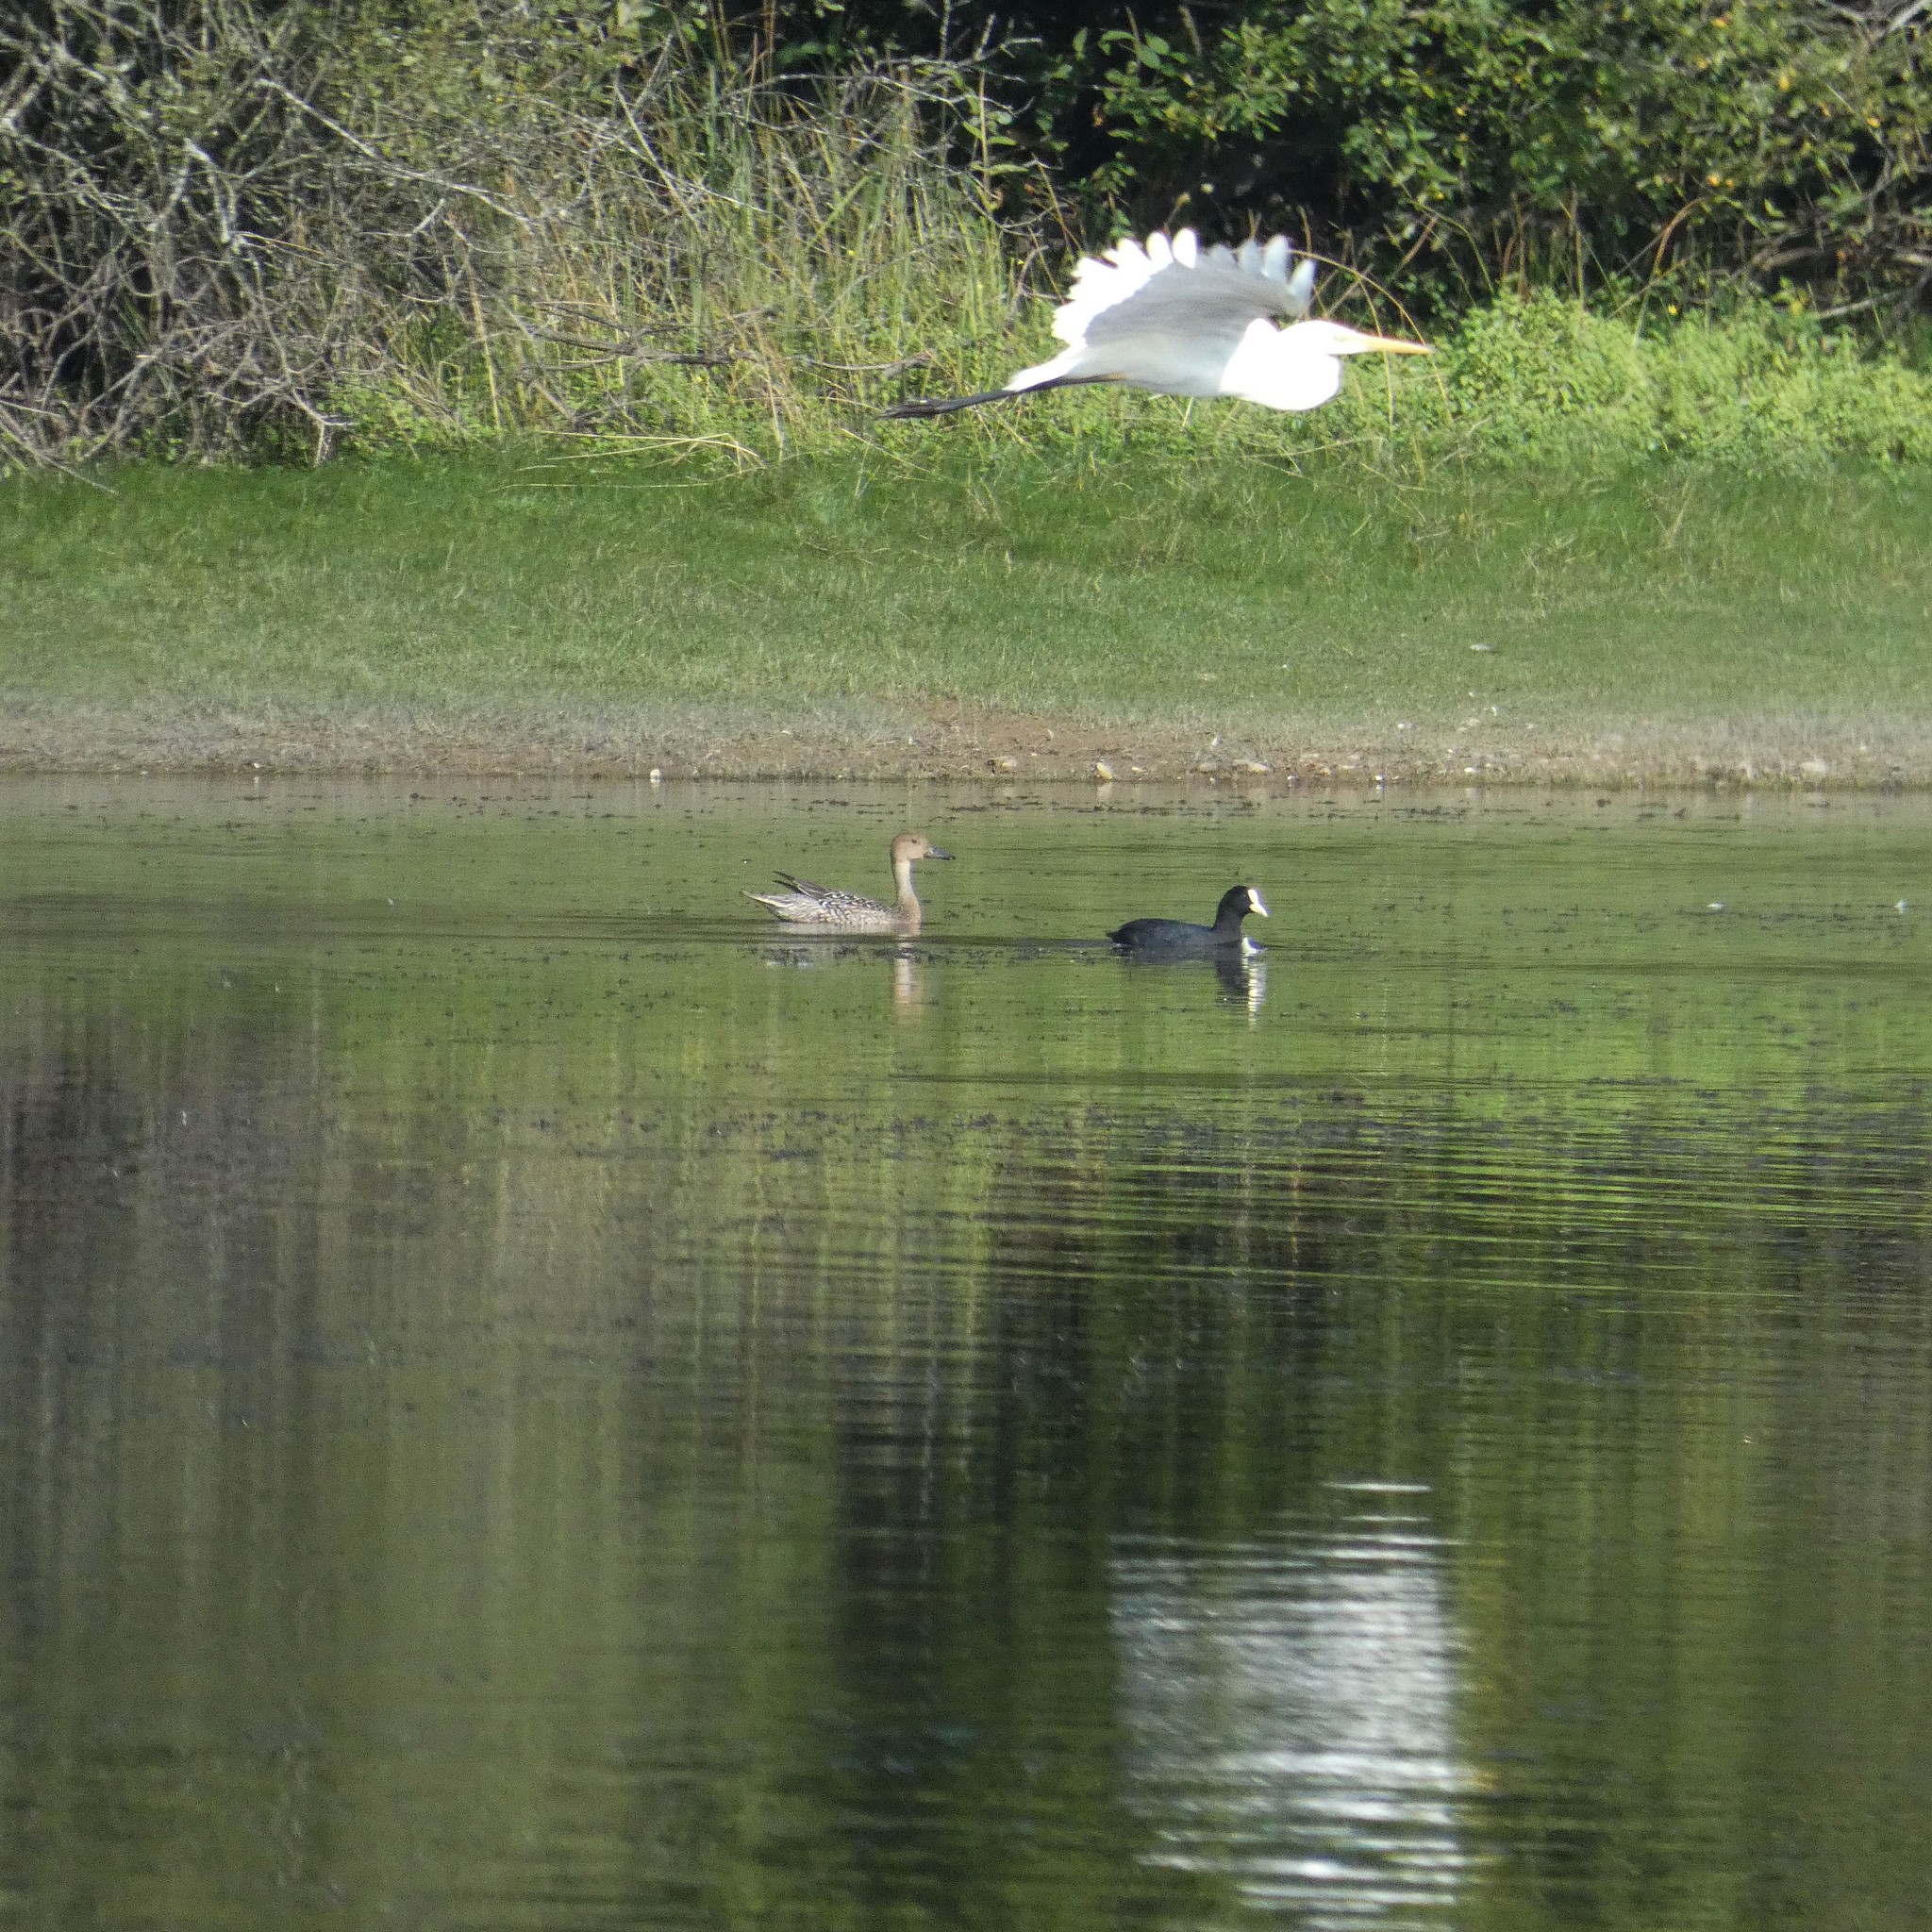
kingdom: Animalia
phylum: Chordata
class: Aves
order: Pelecaniformes
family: Ardeidae
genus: Ardea
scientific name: Ardea alba
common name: Great egret
